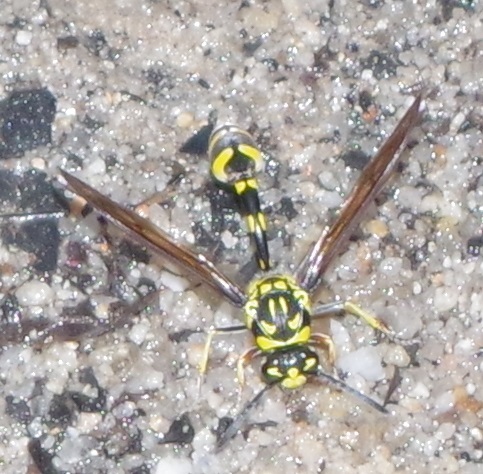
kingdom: Animalia
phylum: Arthropoda
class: Insecta
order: Hymenoptera
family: Eumenidae
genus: Phimenes
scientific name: Phimenes flavopictus
